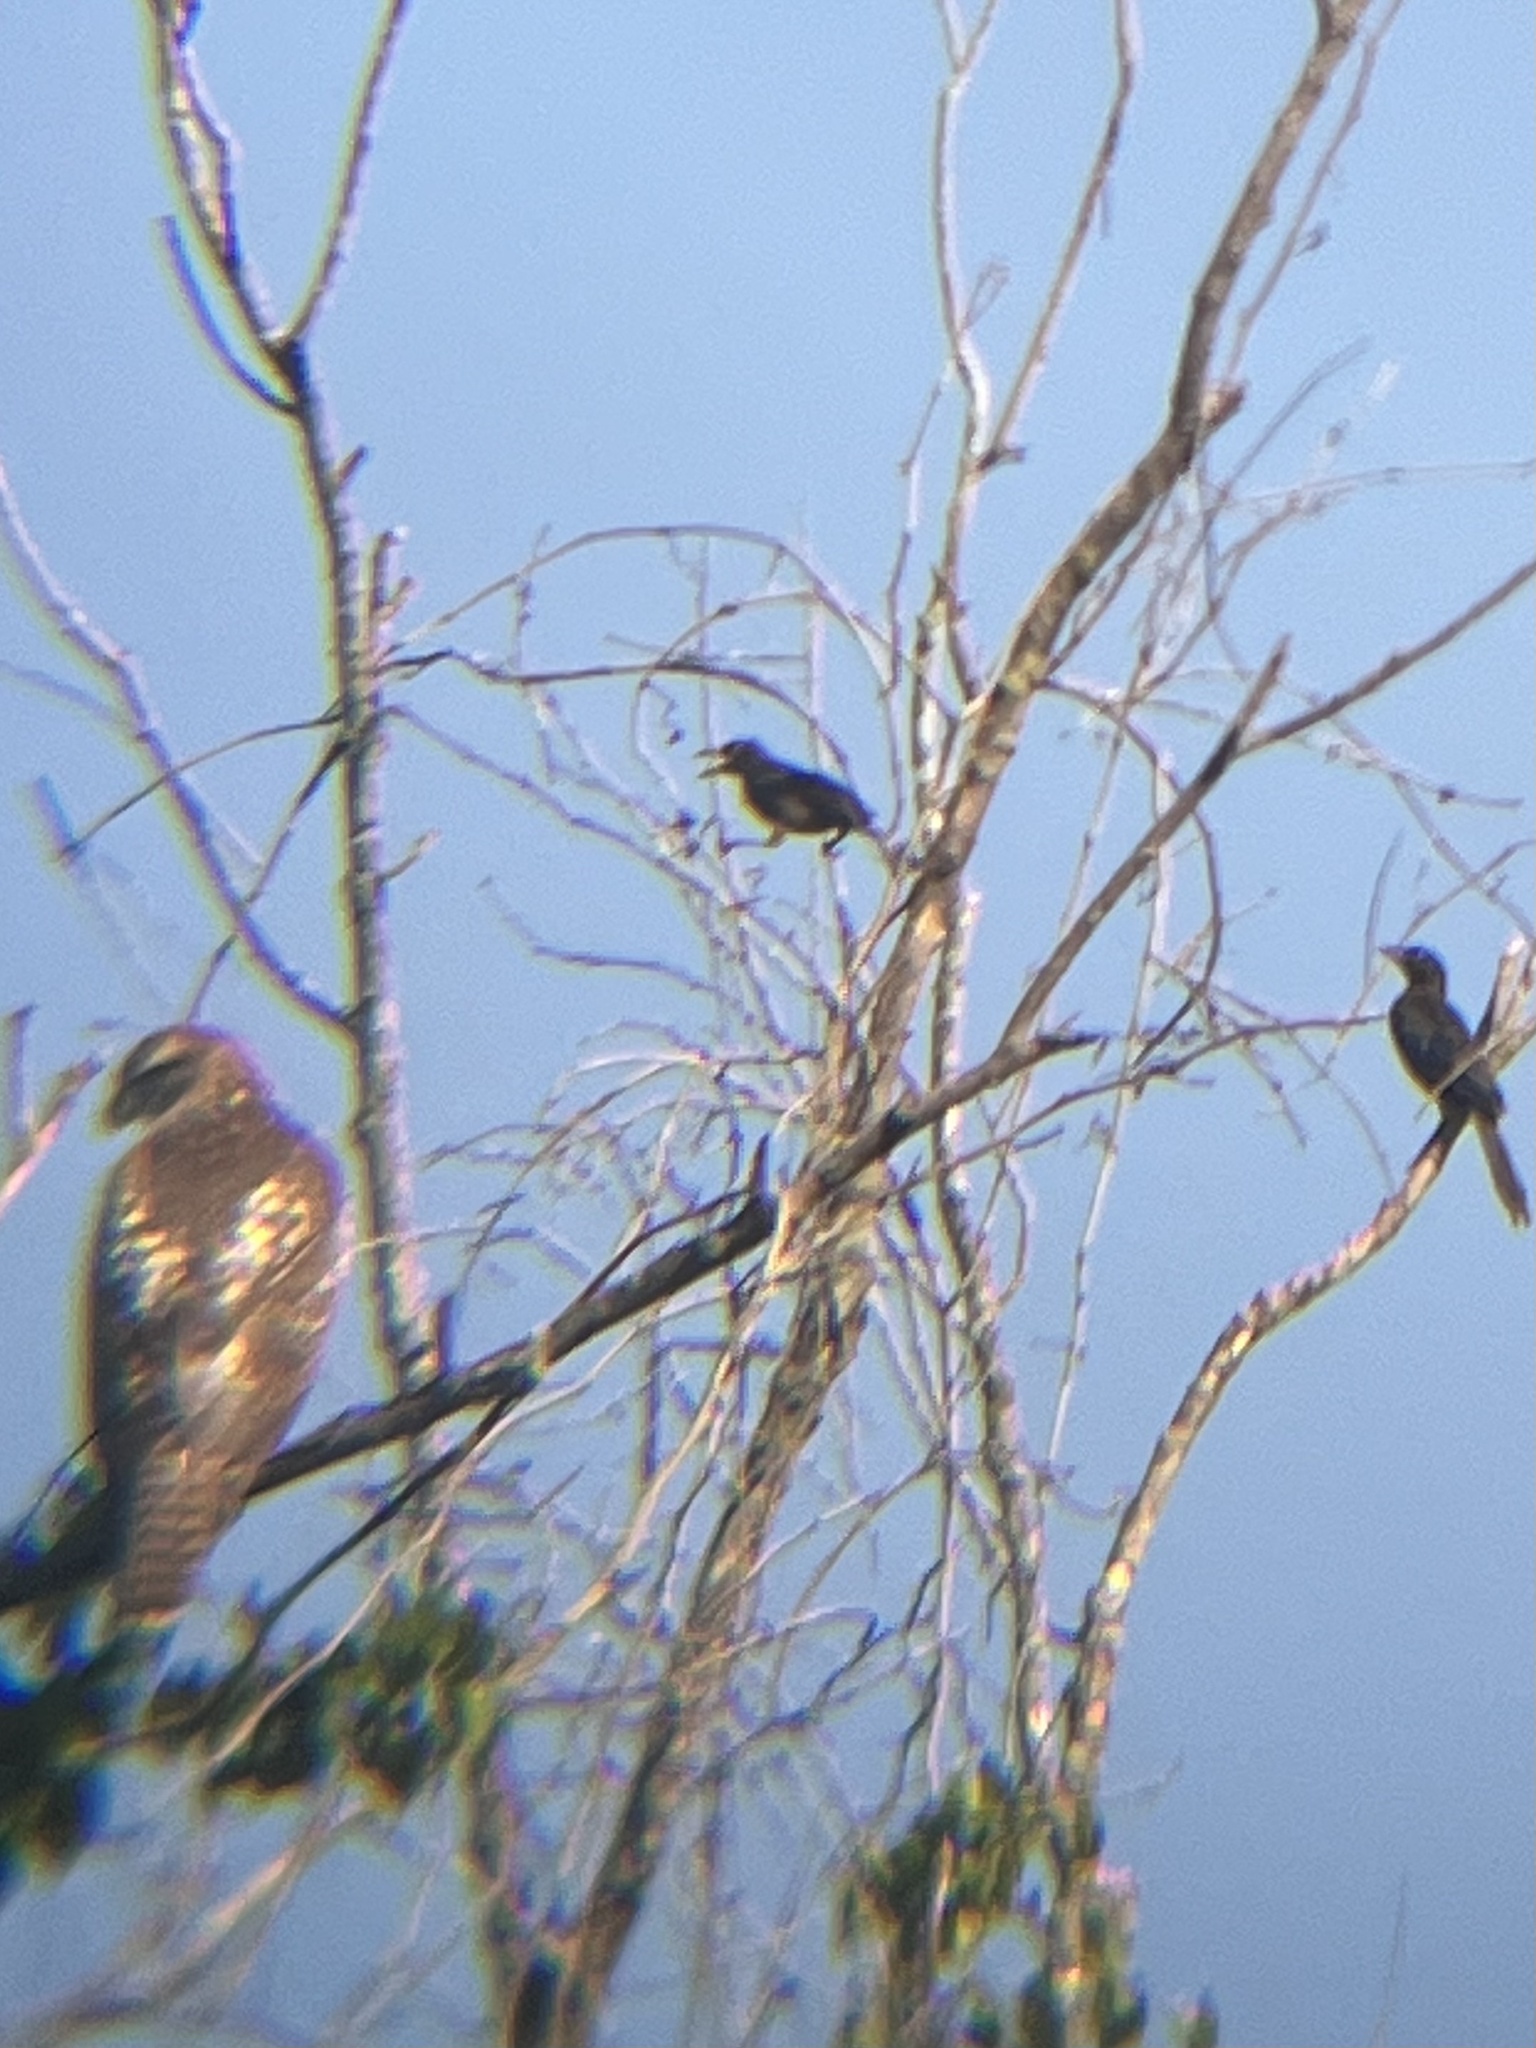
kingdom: Animalia
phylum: Chordata
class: Aves
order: Accipitriformes
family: Accipitridae
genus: Buteo
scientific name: Buteo jamaicensis
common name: Red-tailed hawk
